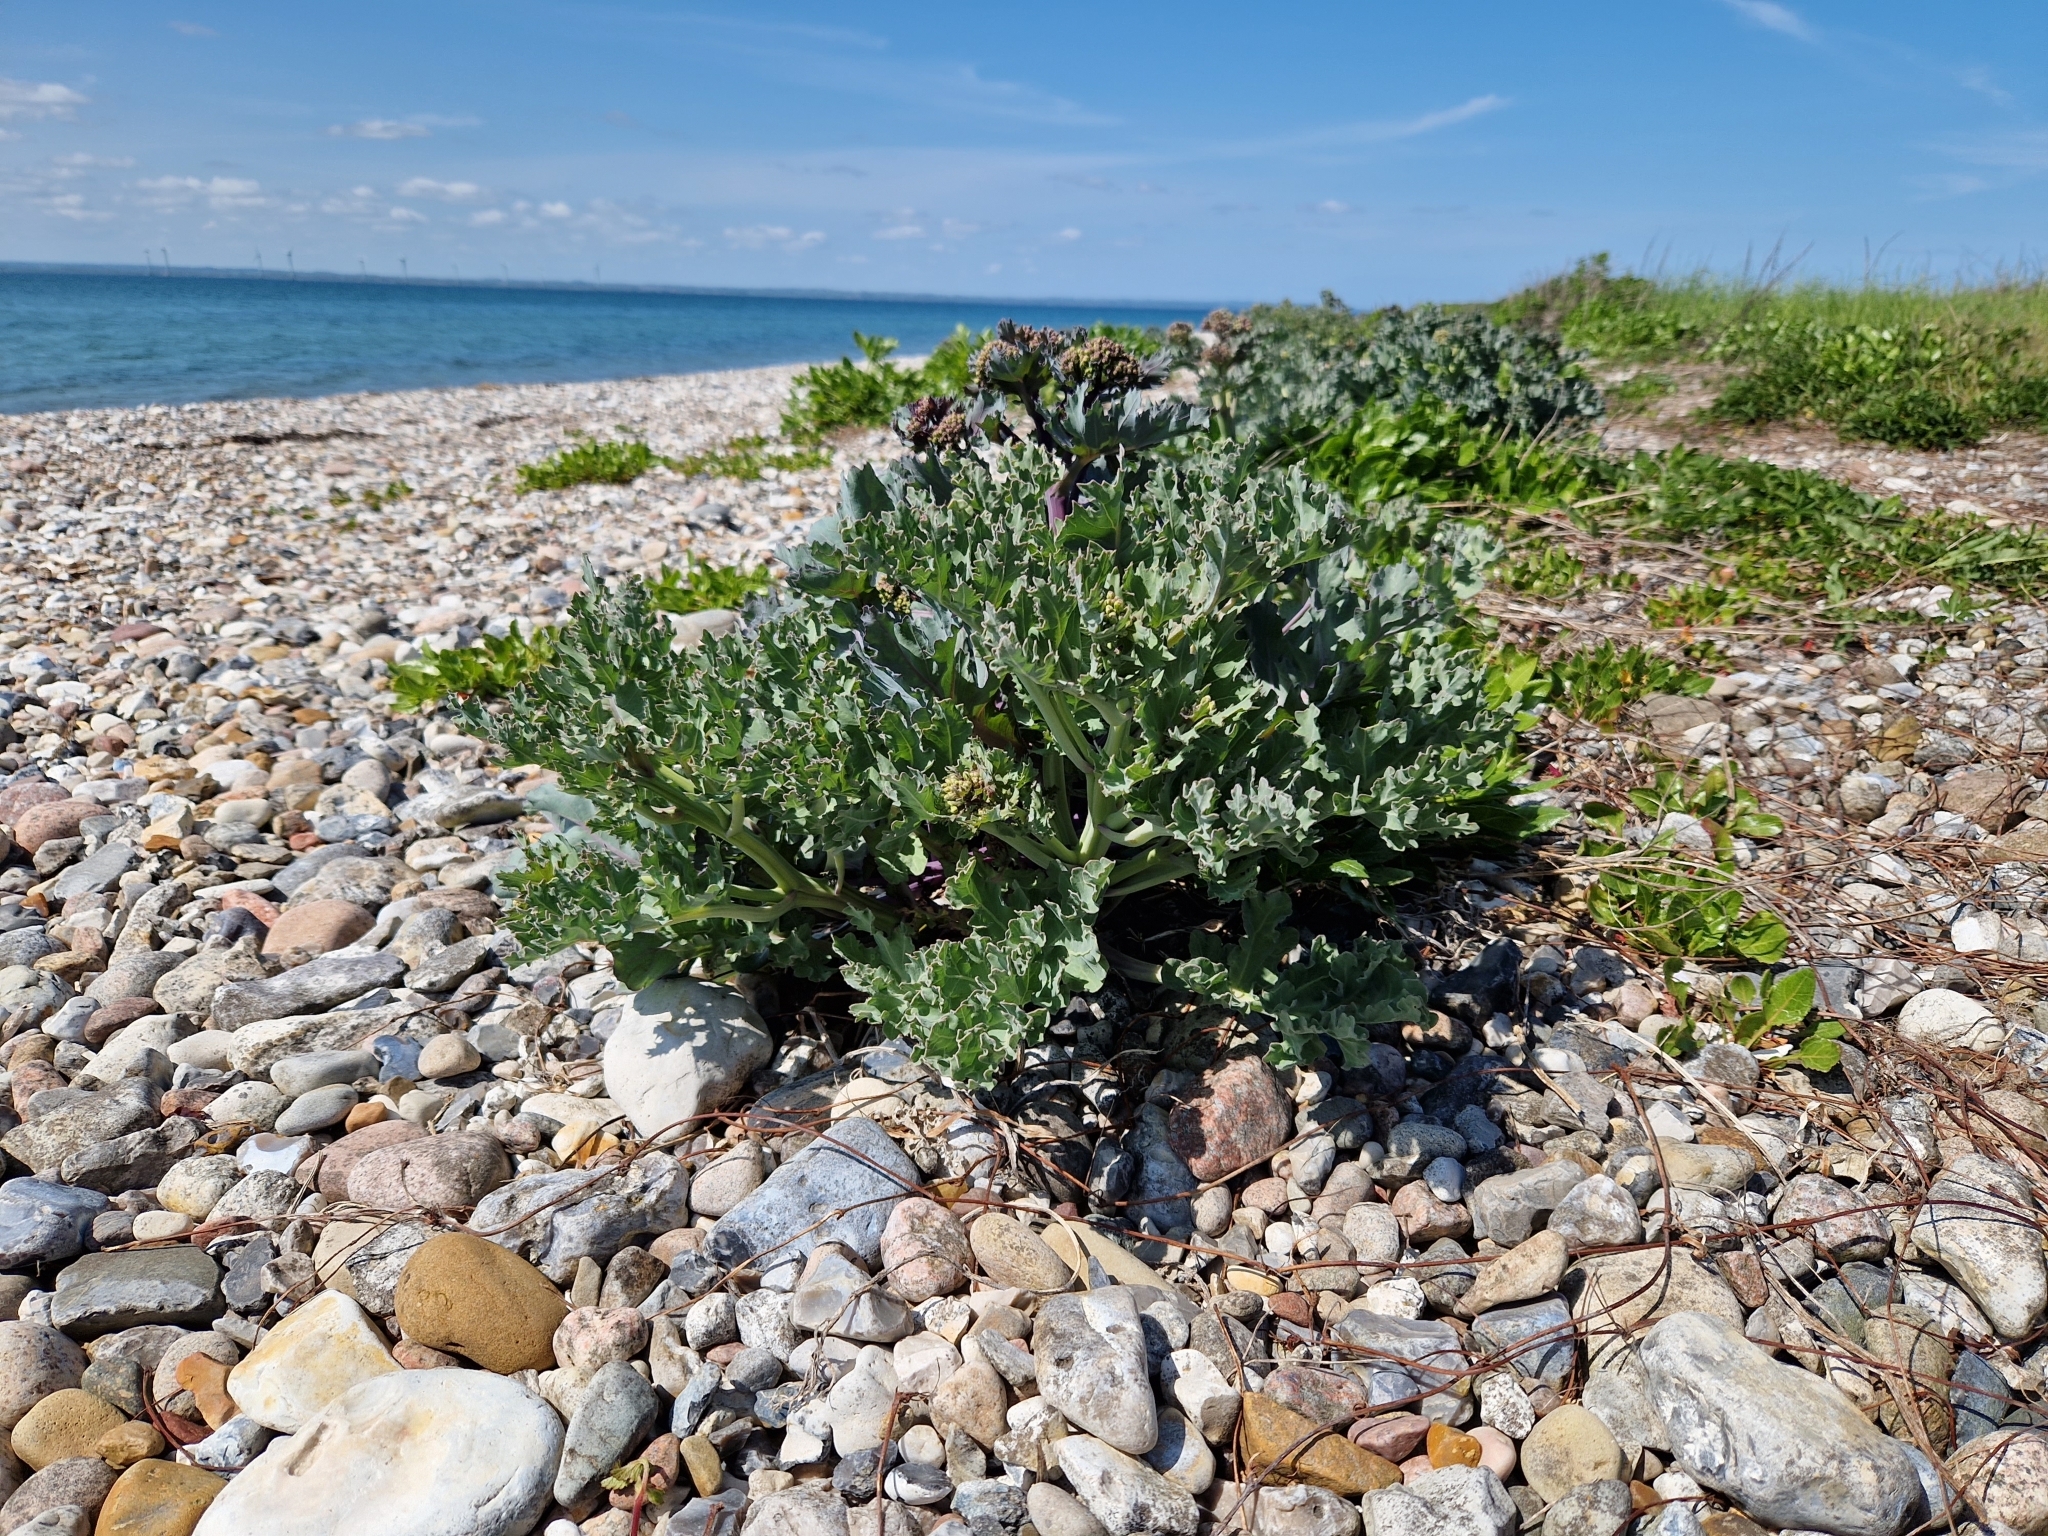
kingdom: Plantae
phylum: Tracheophyta
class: Magnoliopsida
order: Brassicales
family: Brassicaceae
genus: Crambe
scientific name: Crambe maritima
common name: Sea-kale
